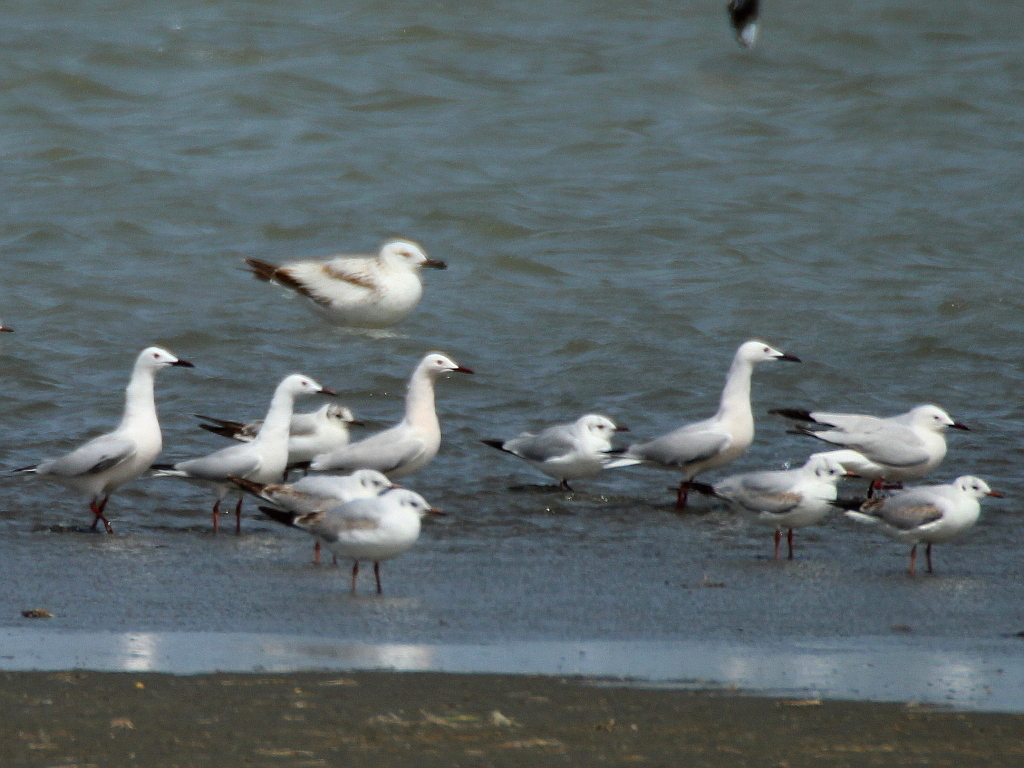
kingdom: Animalia
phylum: Chordata
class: Aves
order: Charadriiformes
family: Laridae
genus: Chroicocephalus
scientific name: Chroicocephalus genei
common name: Slender-billed gull
